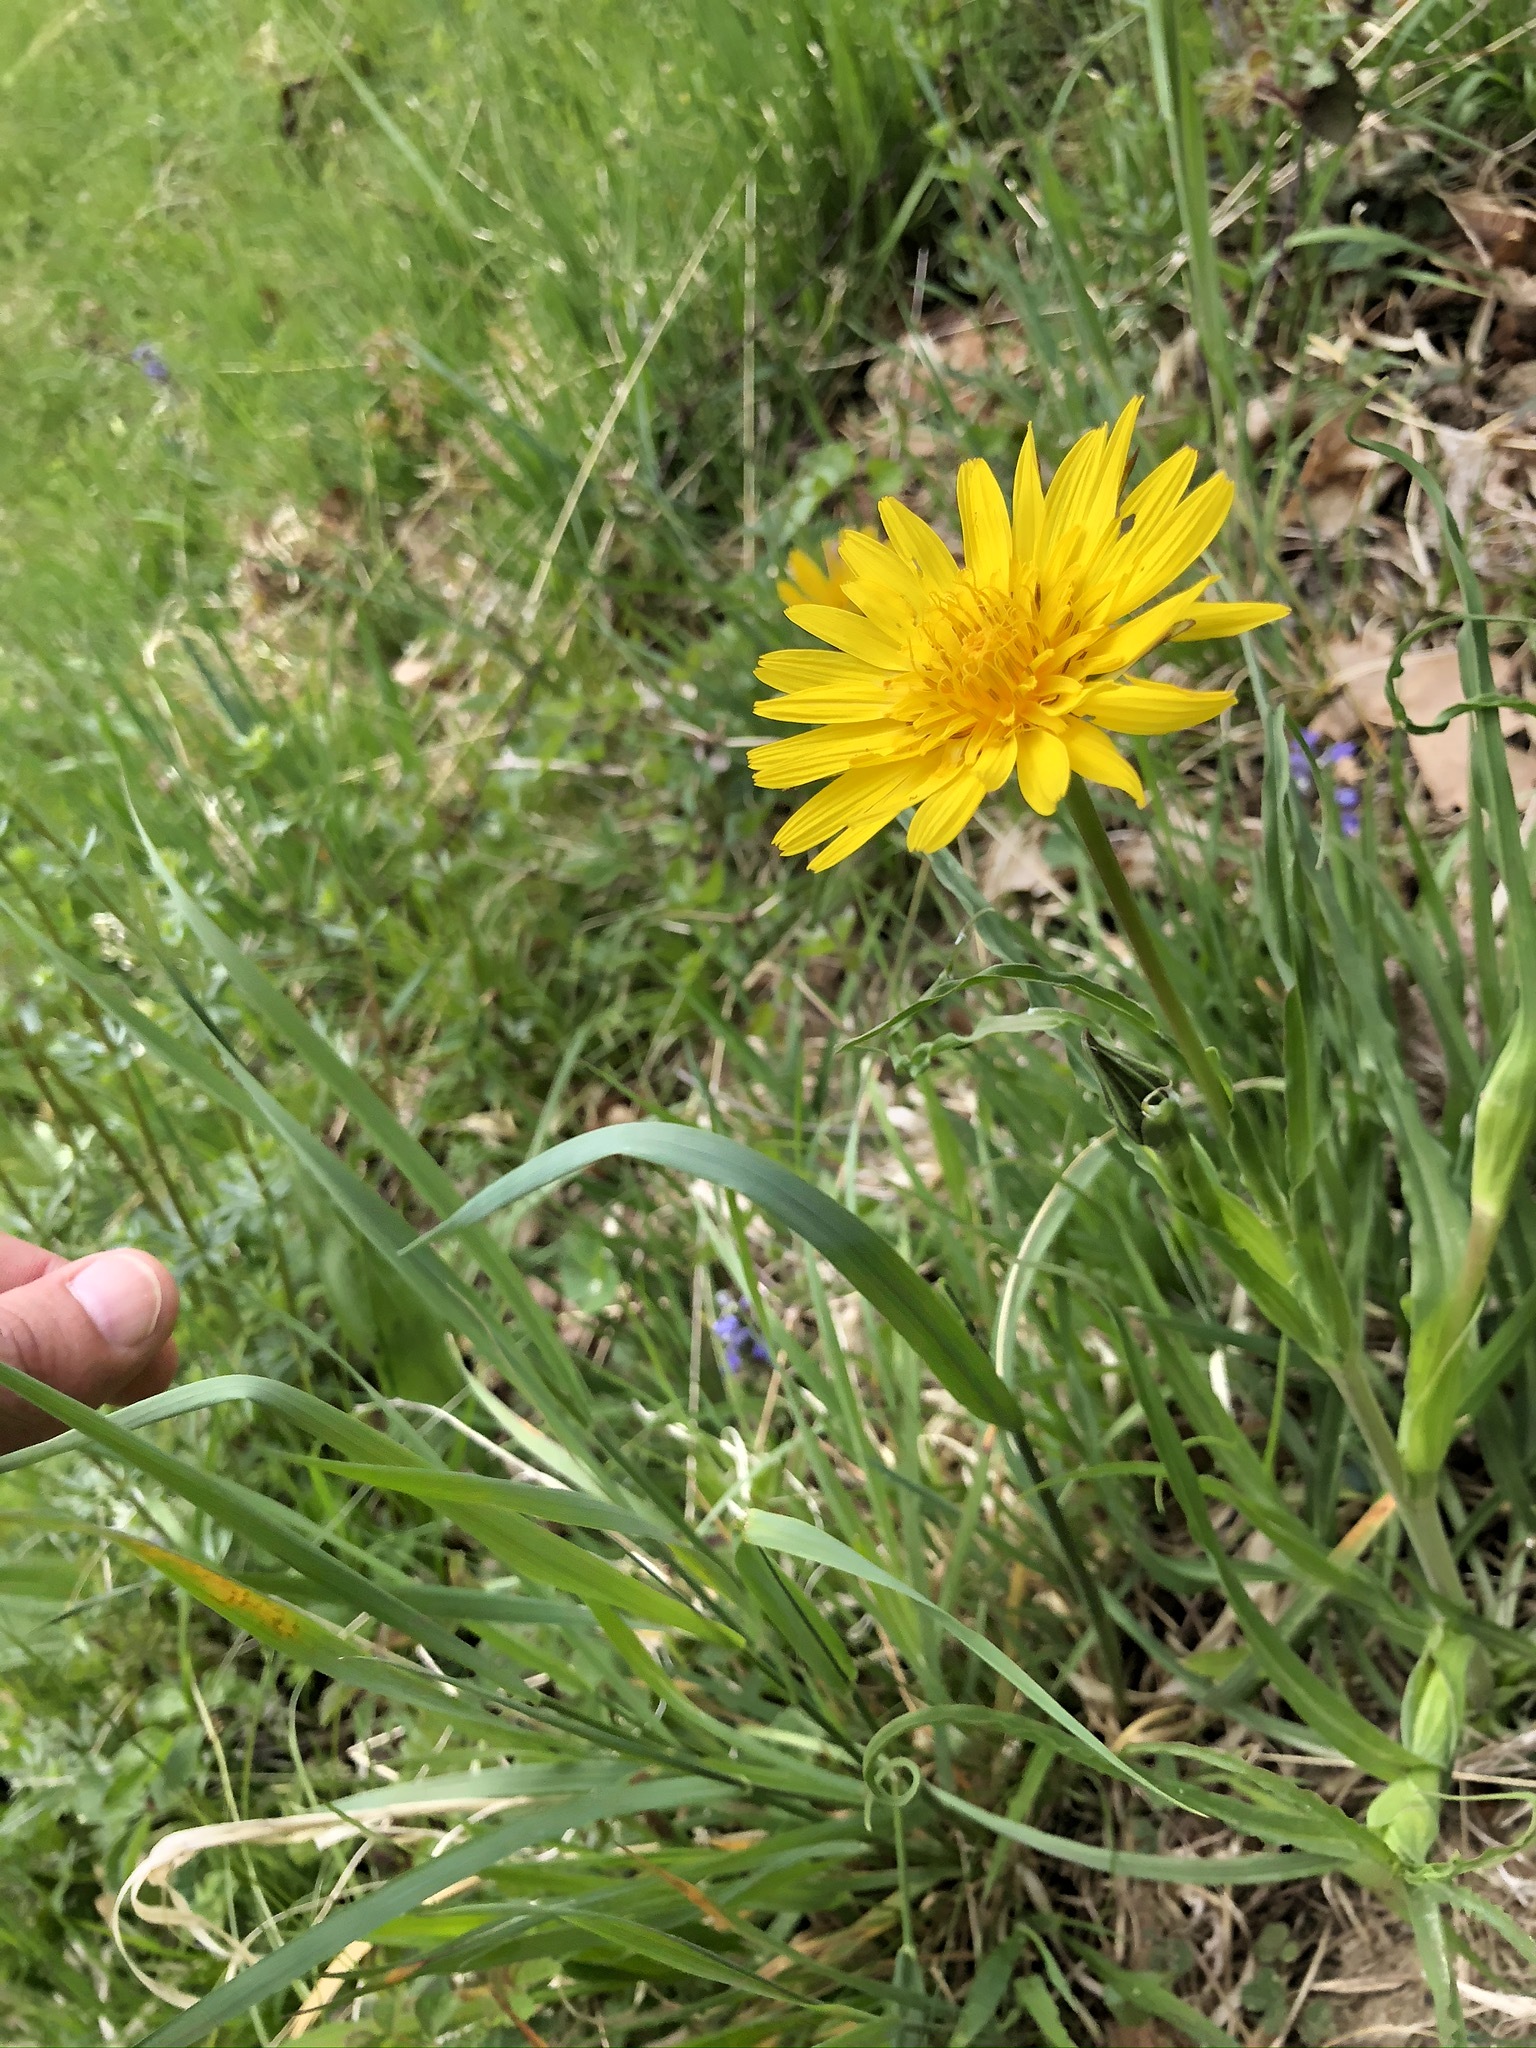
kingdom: Plantae
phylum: Tracheophyta
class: Magnoliopsida
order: Asterales
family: Asteraceae
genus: Tragopogon
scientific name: Tragopogon orientalis
